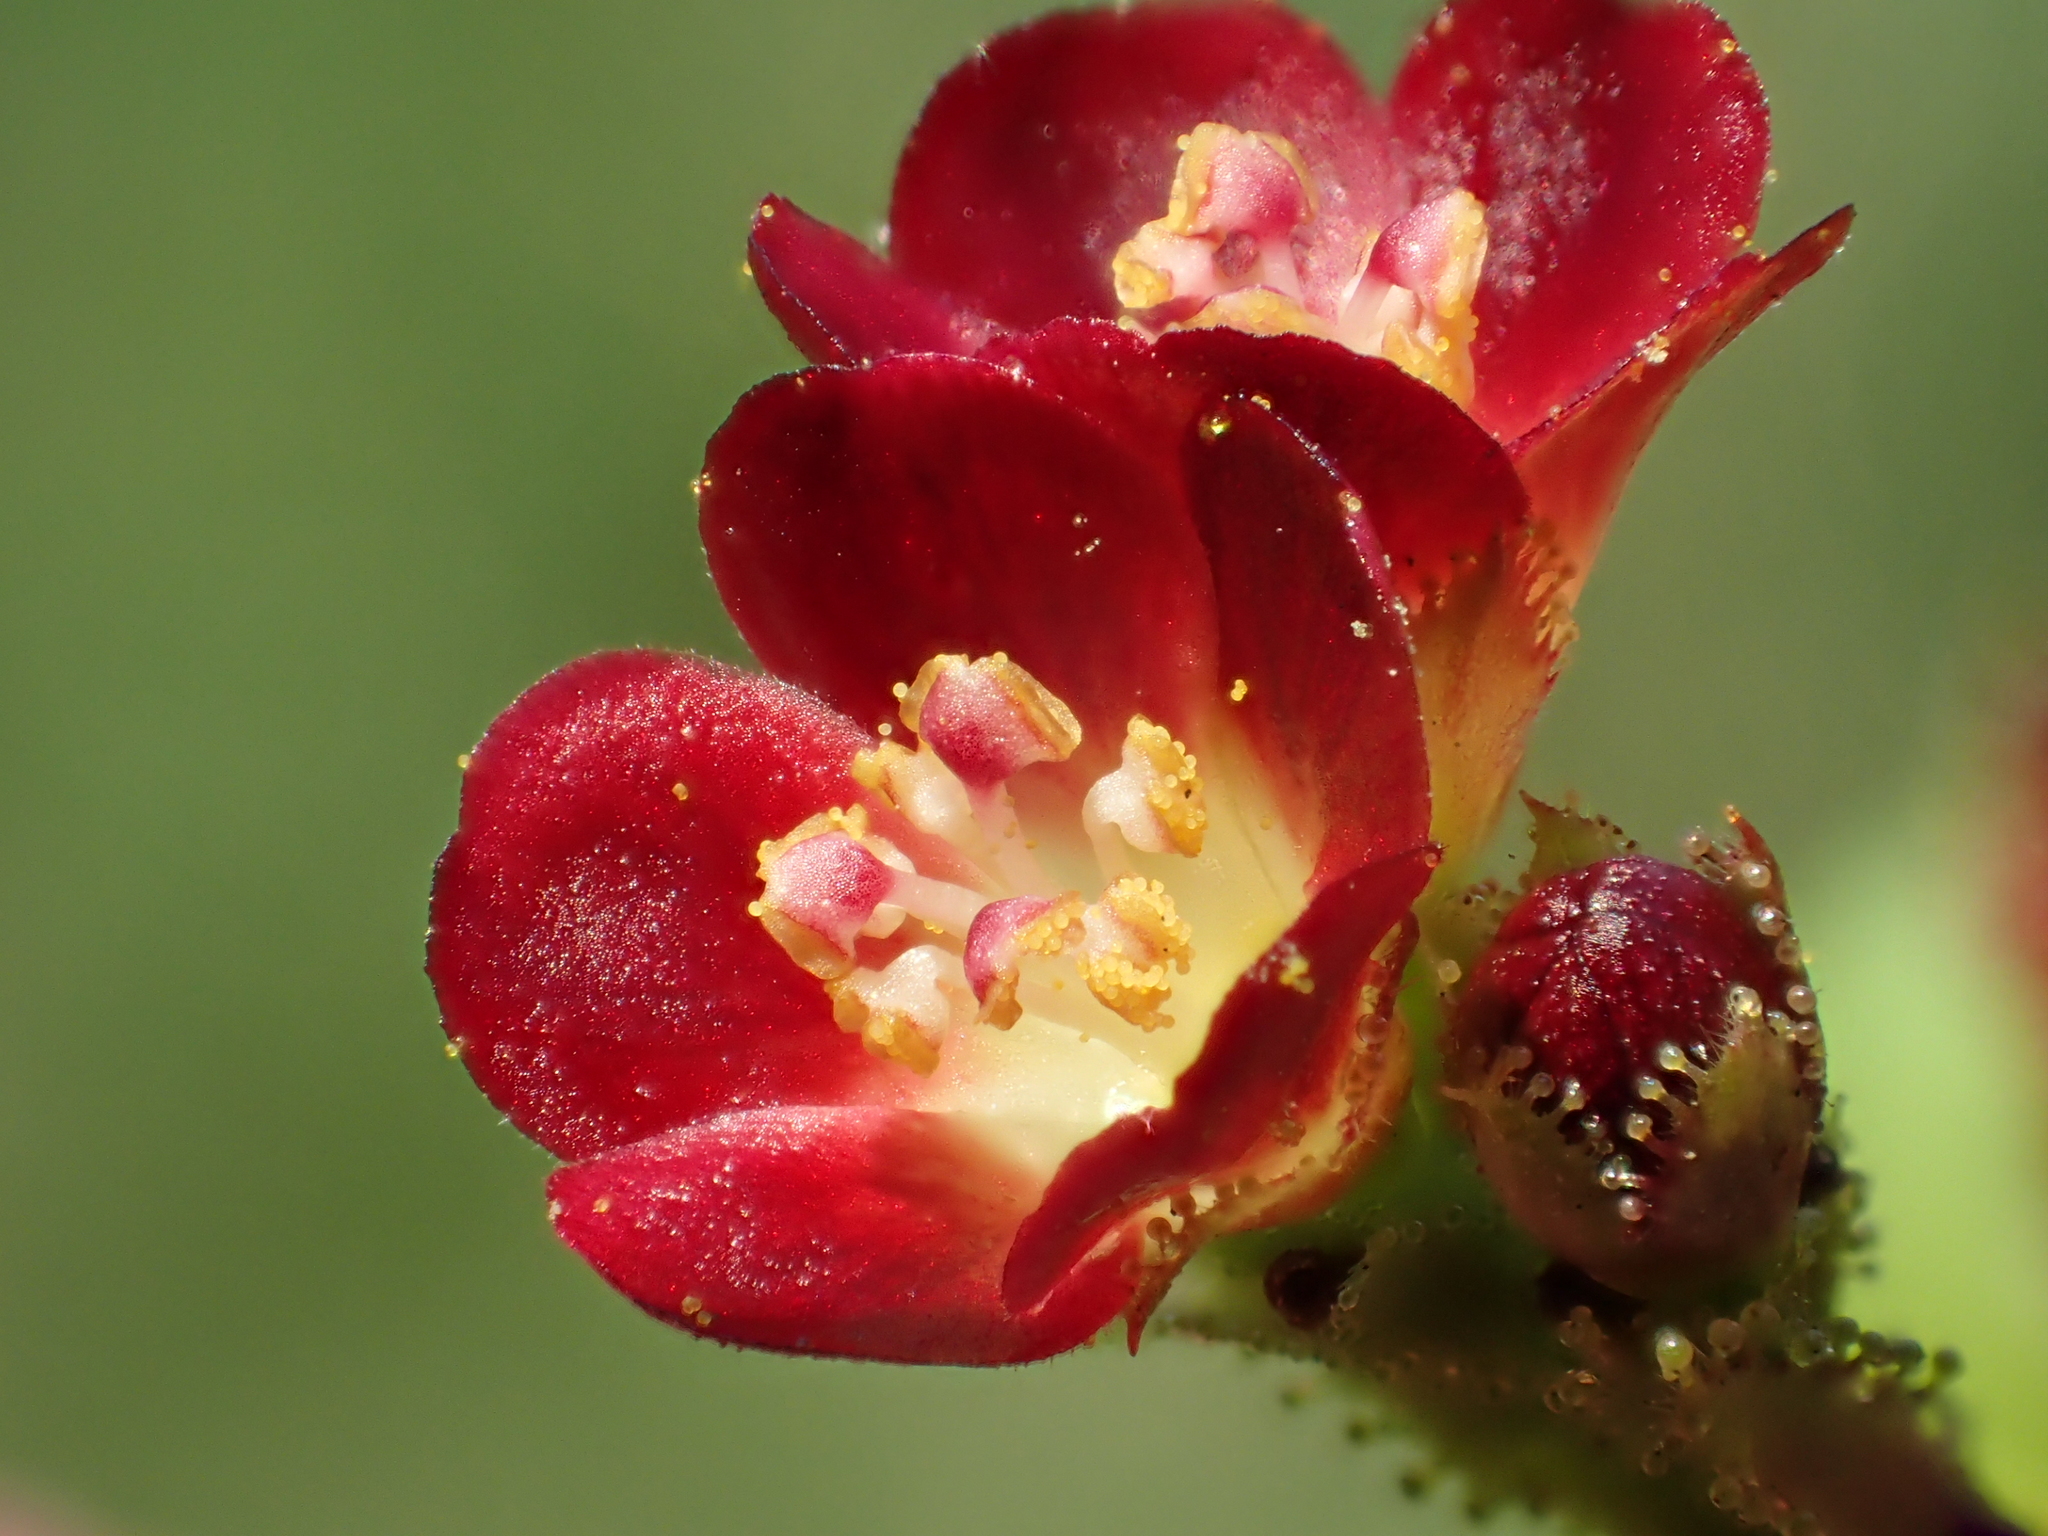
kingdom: Plantae
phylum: Tracheophyta
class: Magnoliopsida
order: Malpighiales
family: Euphorbiaceae
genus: Jatropha
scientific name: Jatropha gossypiifolia
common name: Bellyache bush
